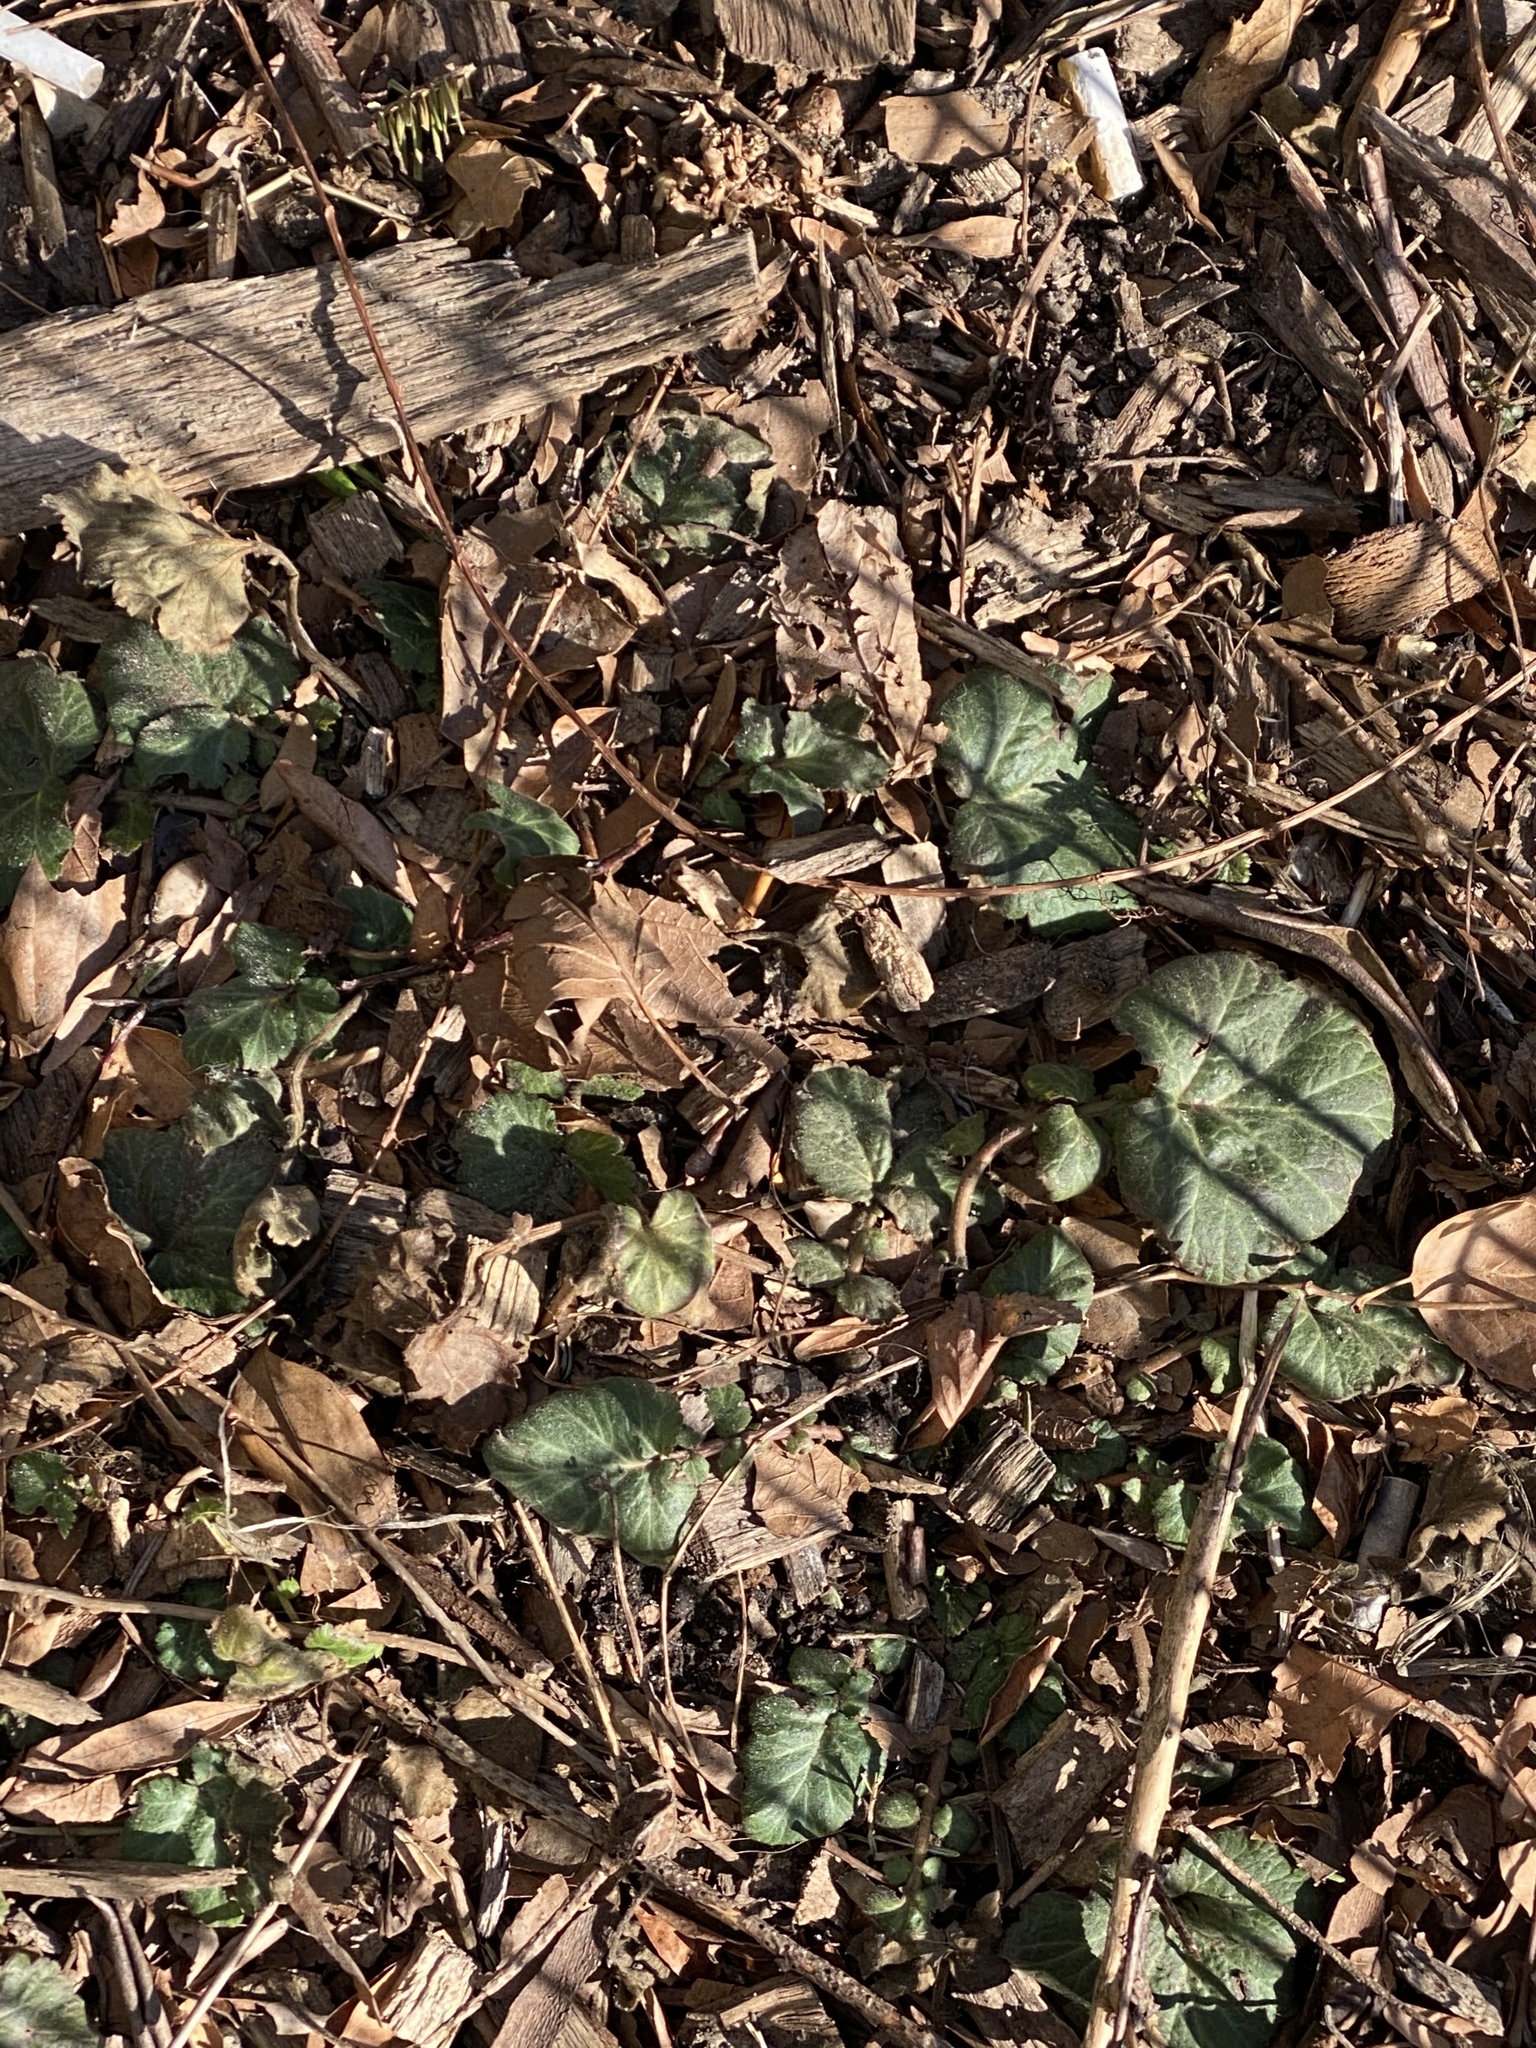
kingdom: Plantae
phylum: Tracheophyta
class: Magnoliopsida
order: Rosales
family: Rosaceae
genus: Geum
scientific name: Geum canadense
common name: White avens
